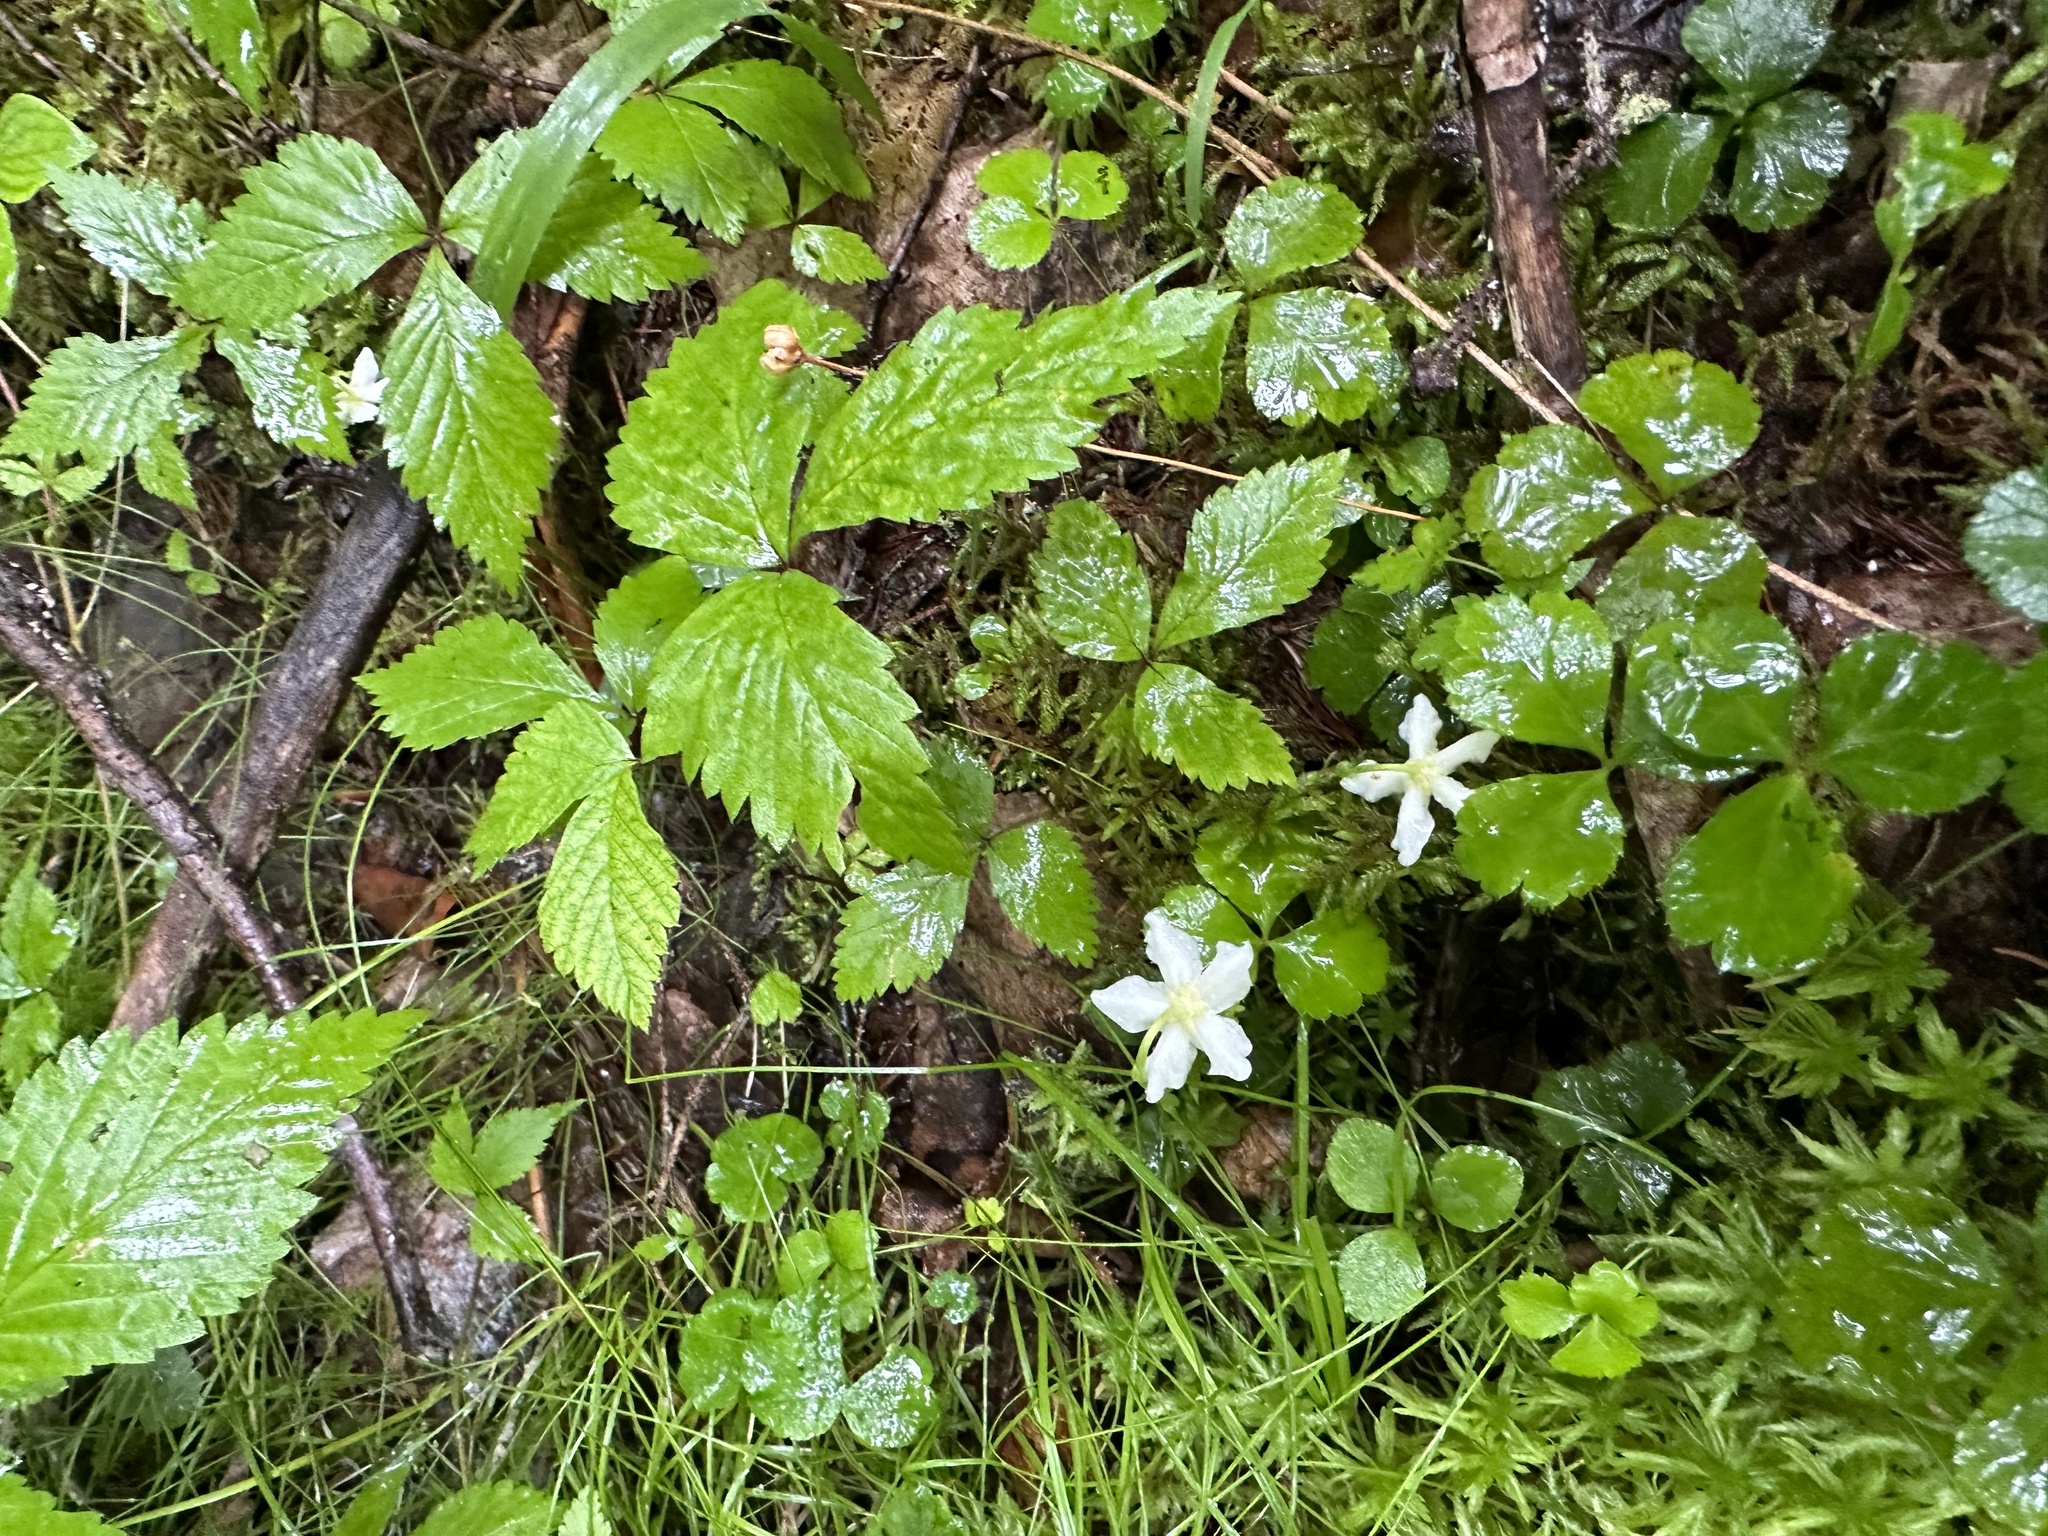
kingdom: Plantae
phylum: Tracheophyta
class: Magnoliopsida
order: Ranunculales
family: Ranunculaceae
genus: Coptis
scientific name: Coptis trifolia
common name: Canker-root
